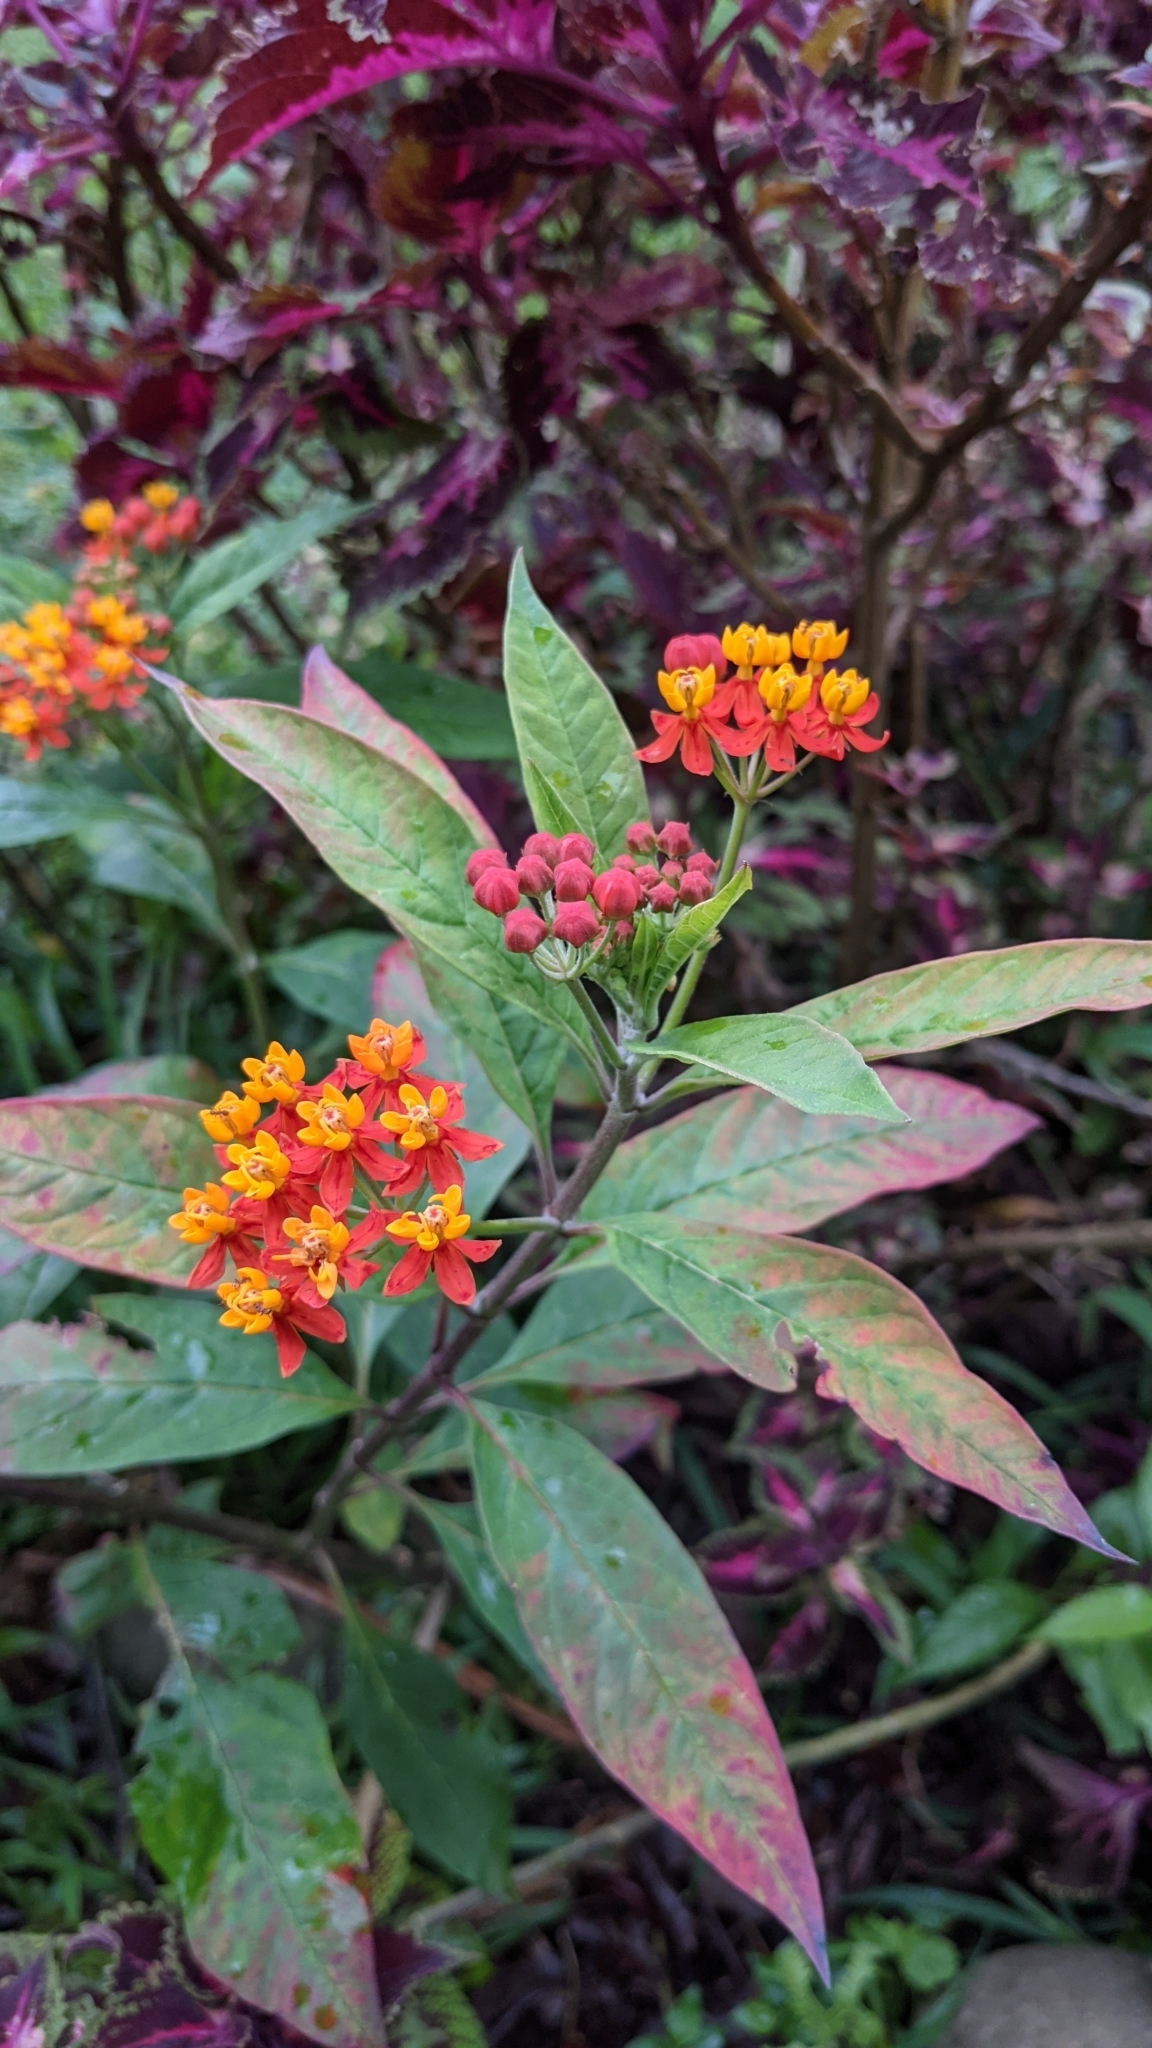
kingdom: Plantae
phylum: Tracheophyta
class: Magnoliopsida
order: Gentianales
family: Apocynaceae
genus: Asclepias
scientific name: Asclepias curassavica
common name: Bloodflower
